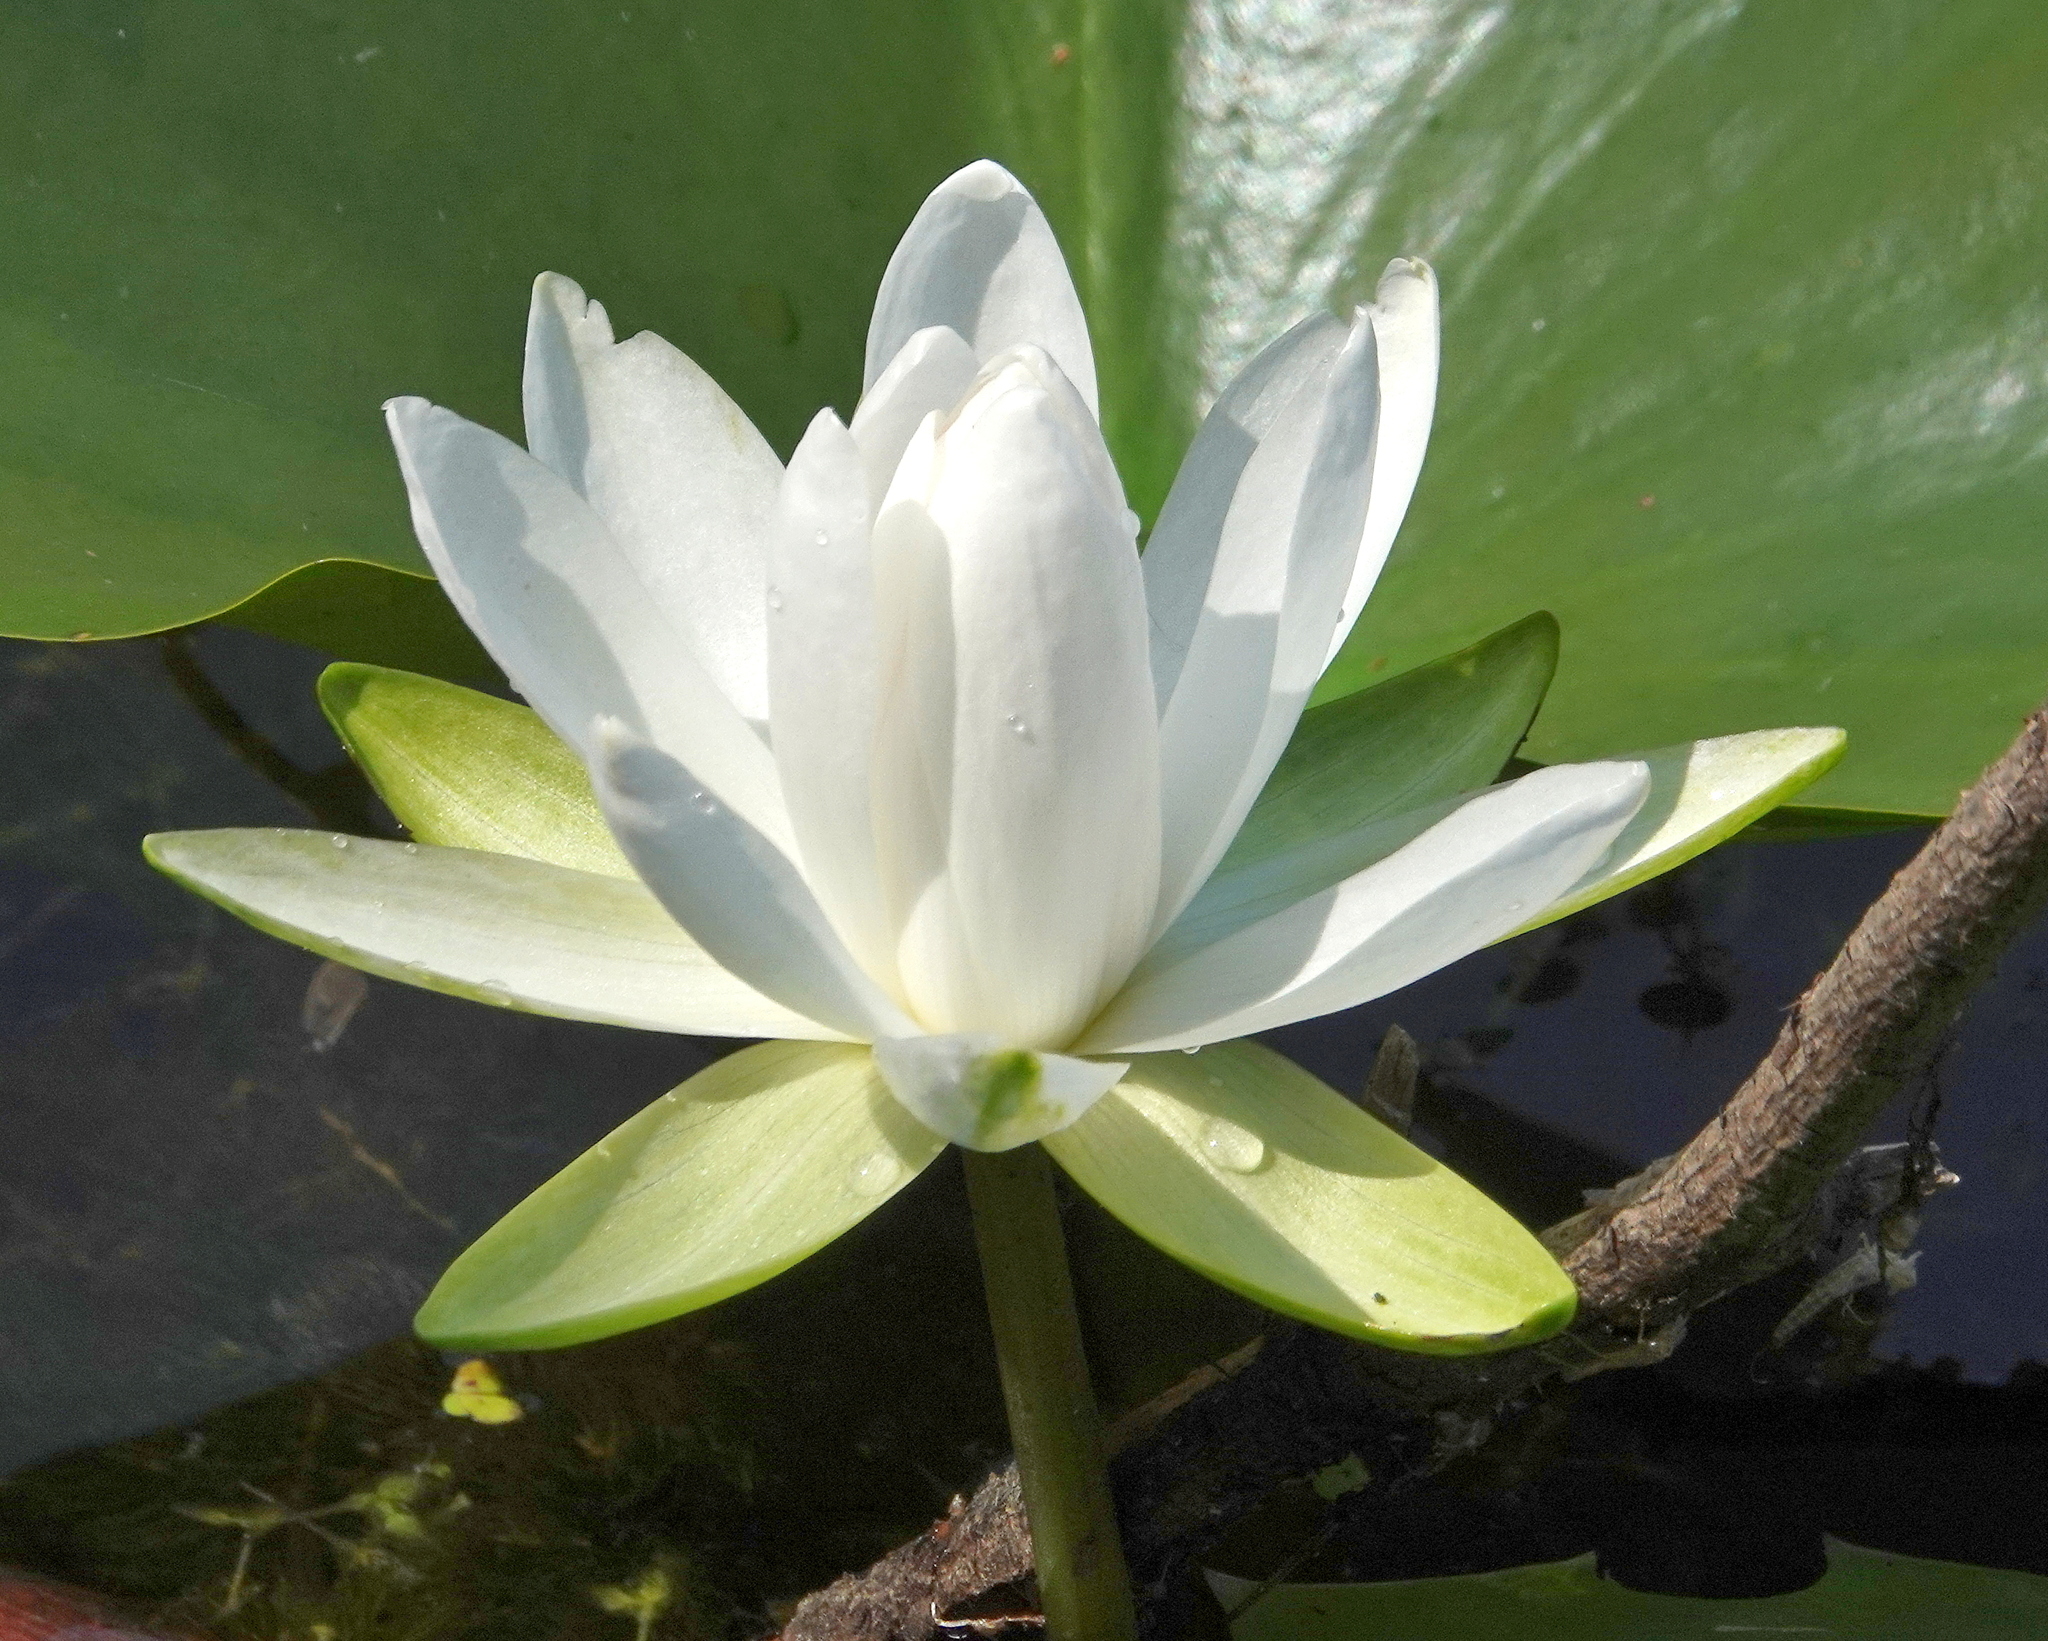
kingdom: Plantae
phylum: Tracheophyta
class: Magnoliopsida
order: Nymphaeales
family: Nymphaeaceae
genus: Nymphaea
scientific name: Nymphaea odorata
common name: Fragrant water-lily
